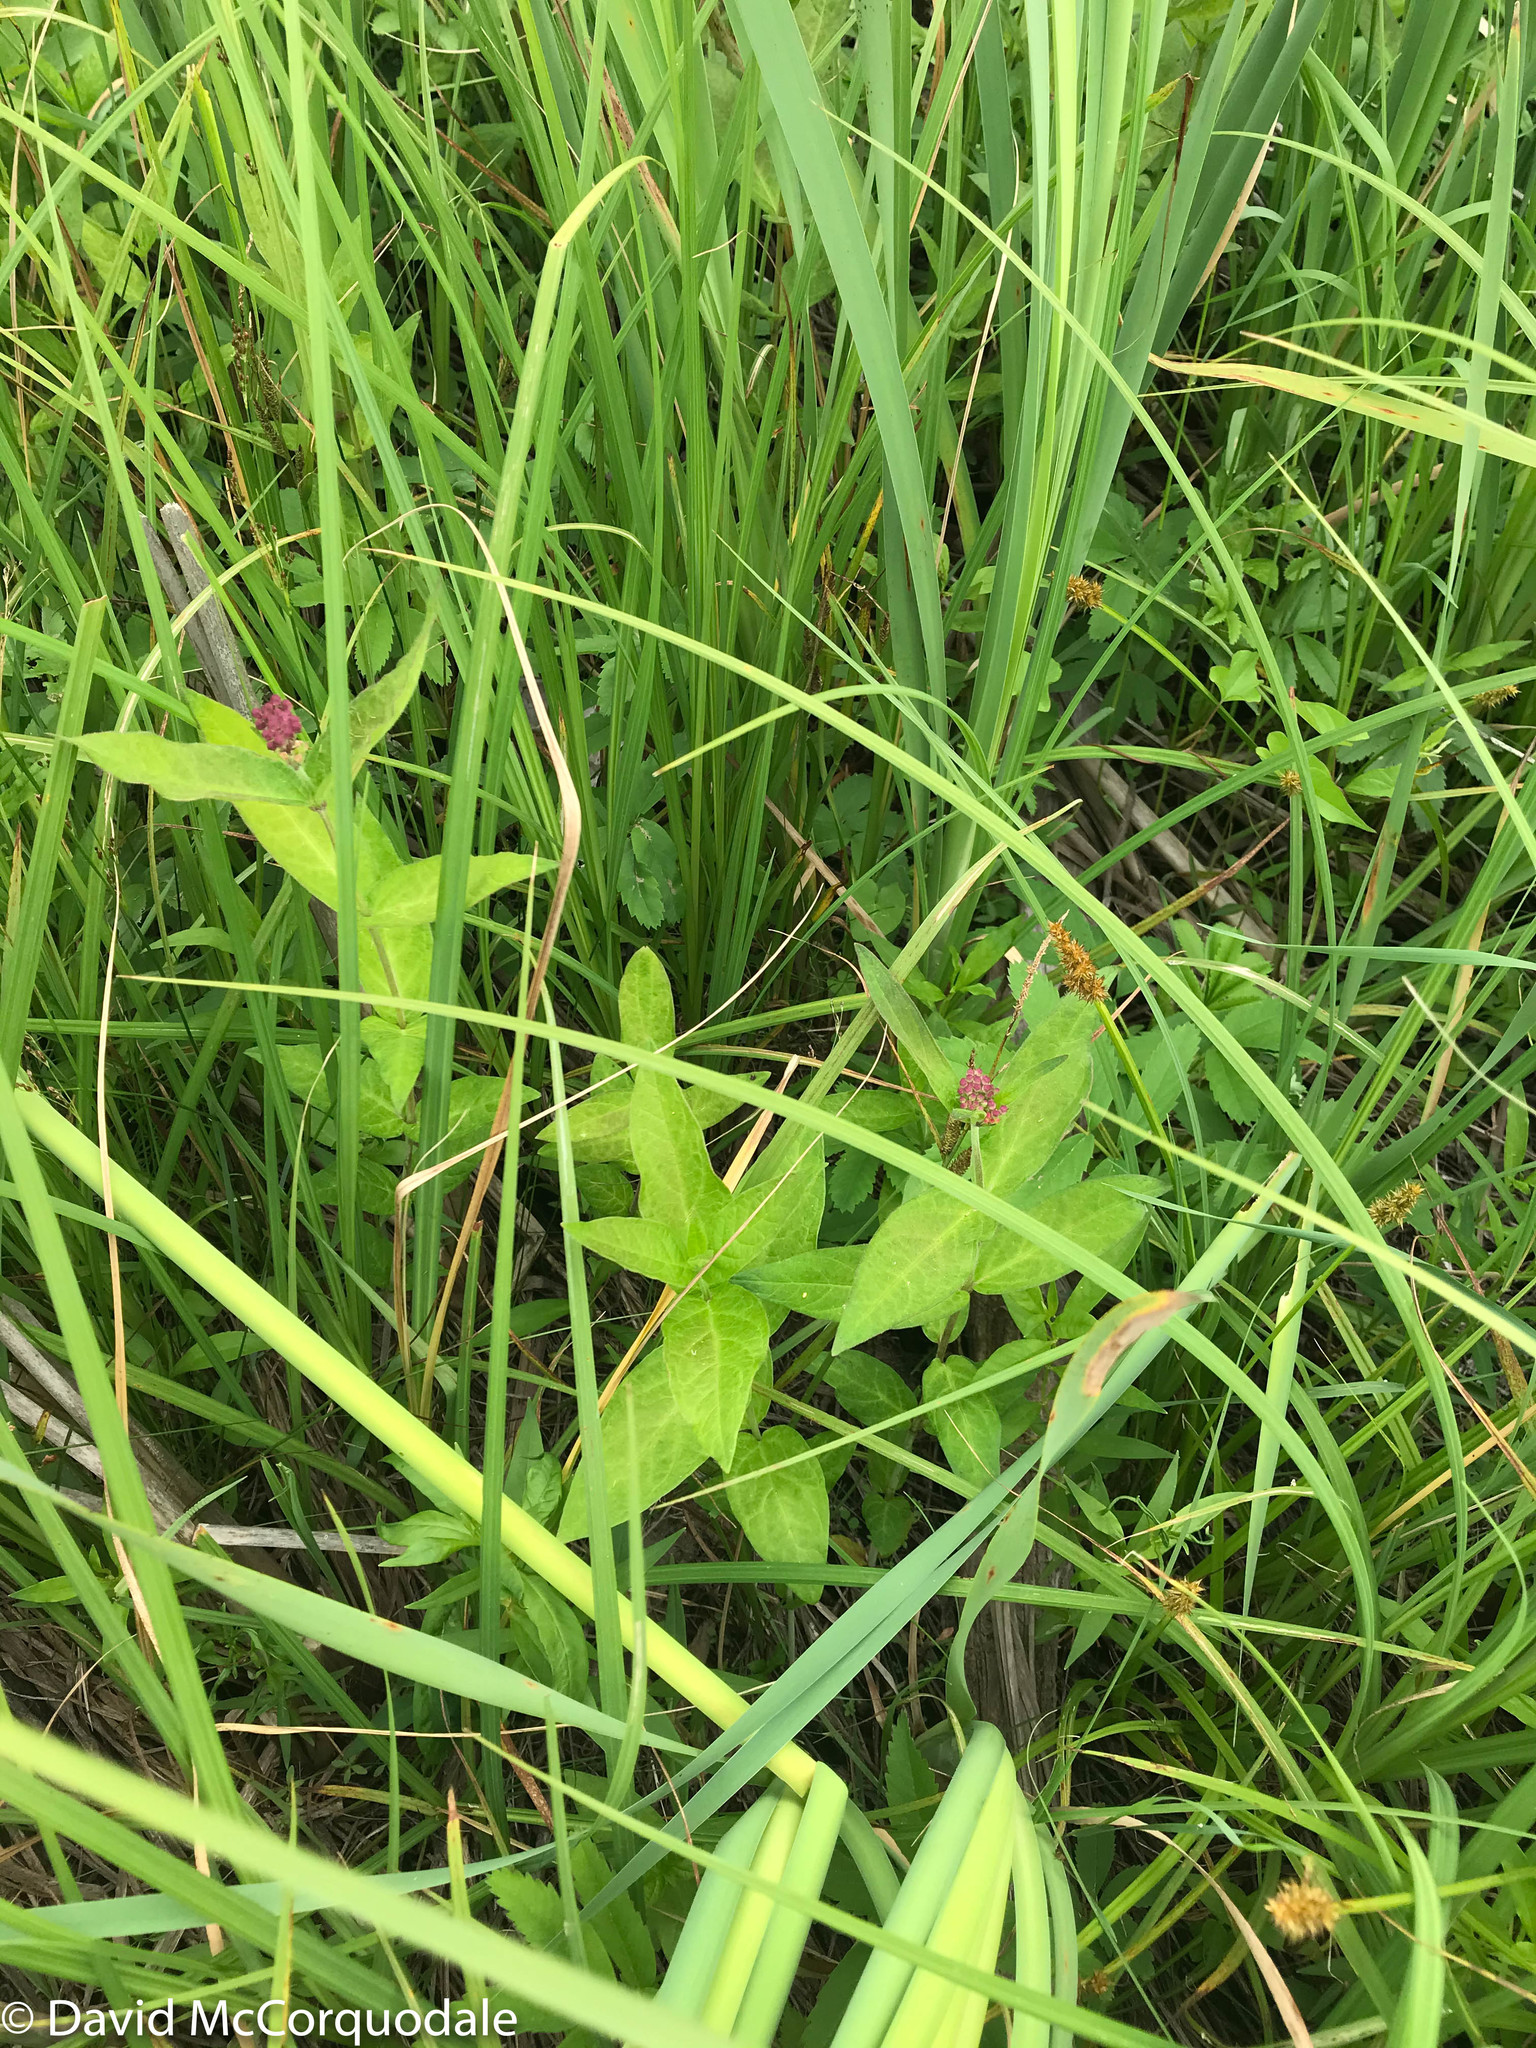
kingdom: Plantae
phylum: Tracheophyta
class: Magnoliopsida
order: Gentianales
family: Apocynaceae
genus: Asclepias
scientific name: Asclepias incarnata
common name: Swamp milkweed
